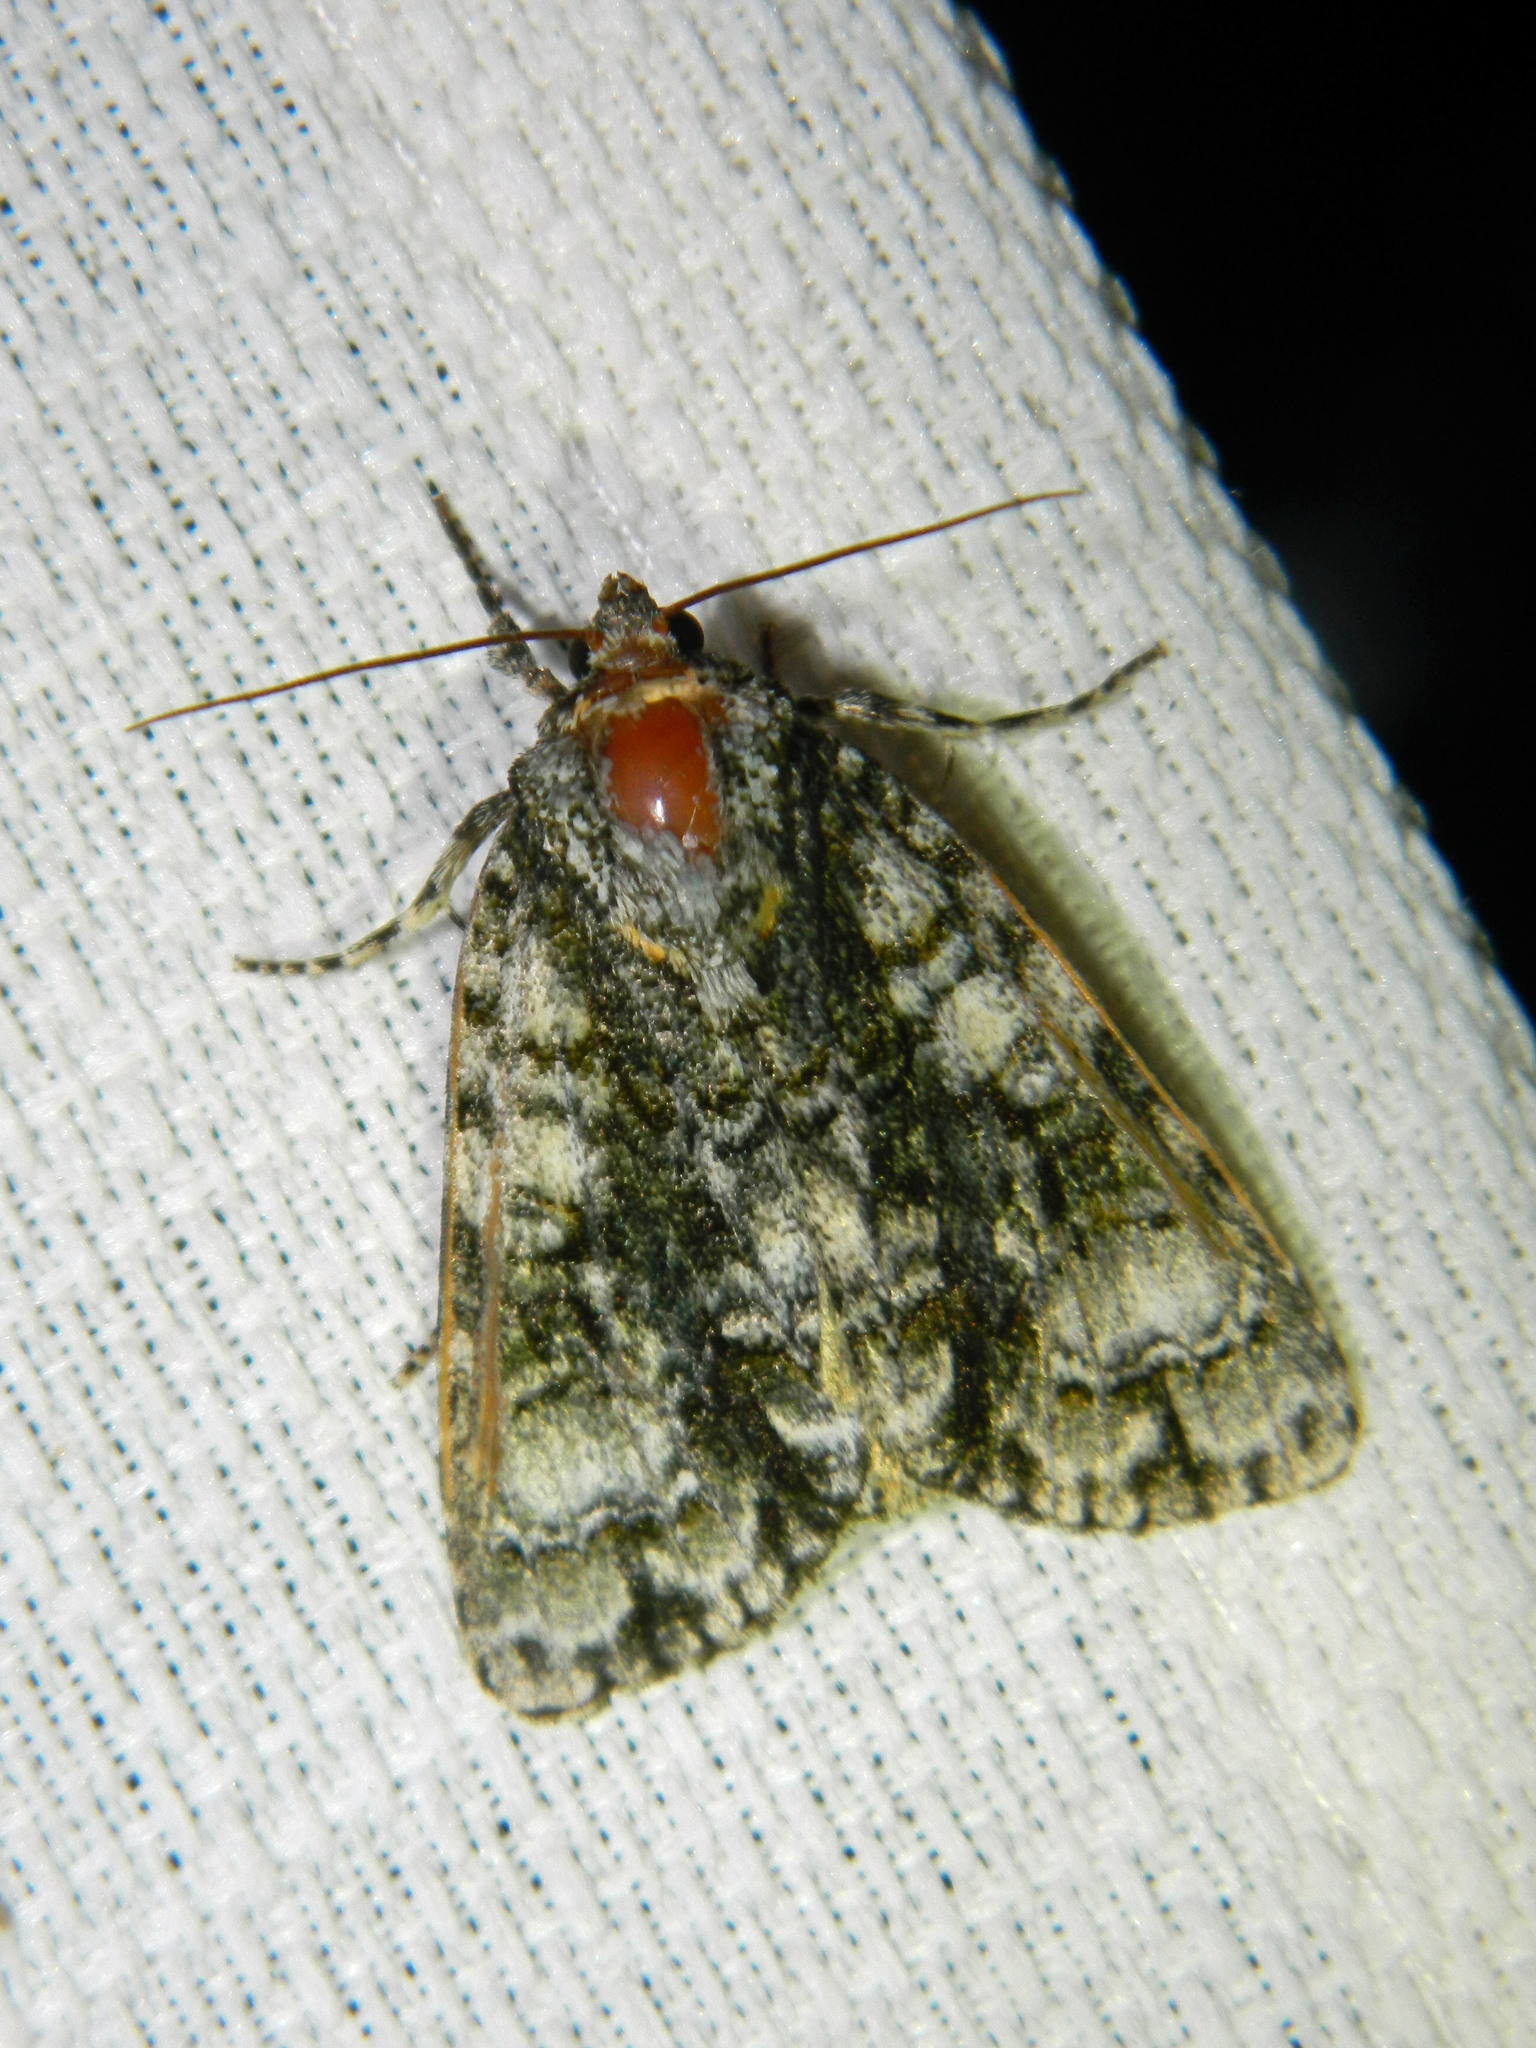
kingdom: Animalia
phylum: Arthropoda
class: Insecta
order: Lepidoptera
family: Noctuidae
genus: Acronicta
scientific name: Acronicta superans
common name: Splendid dagger
